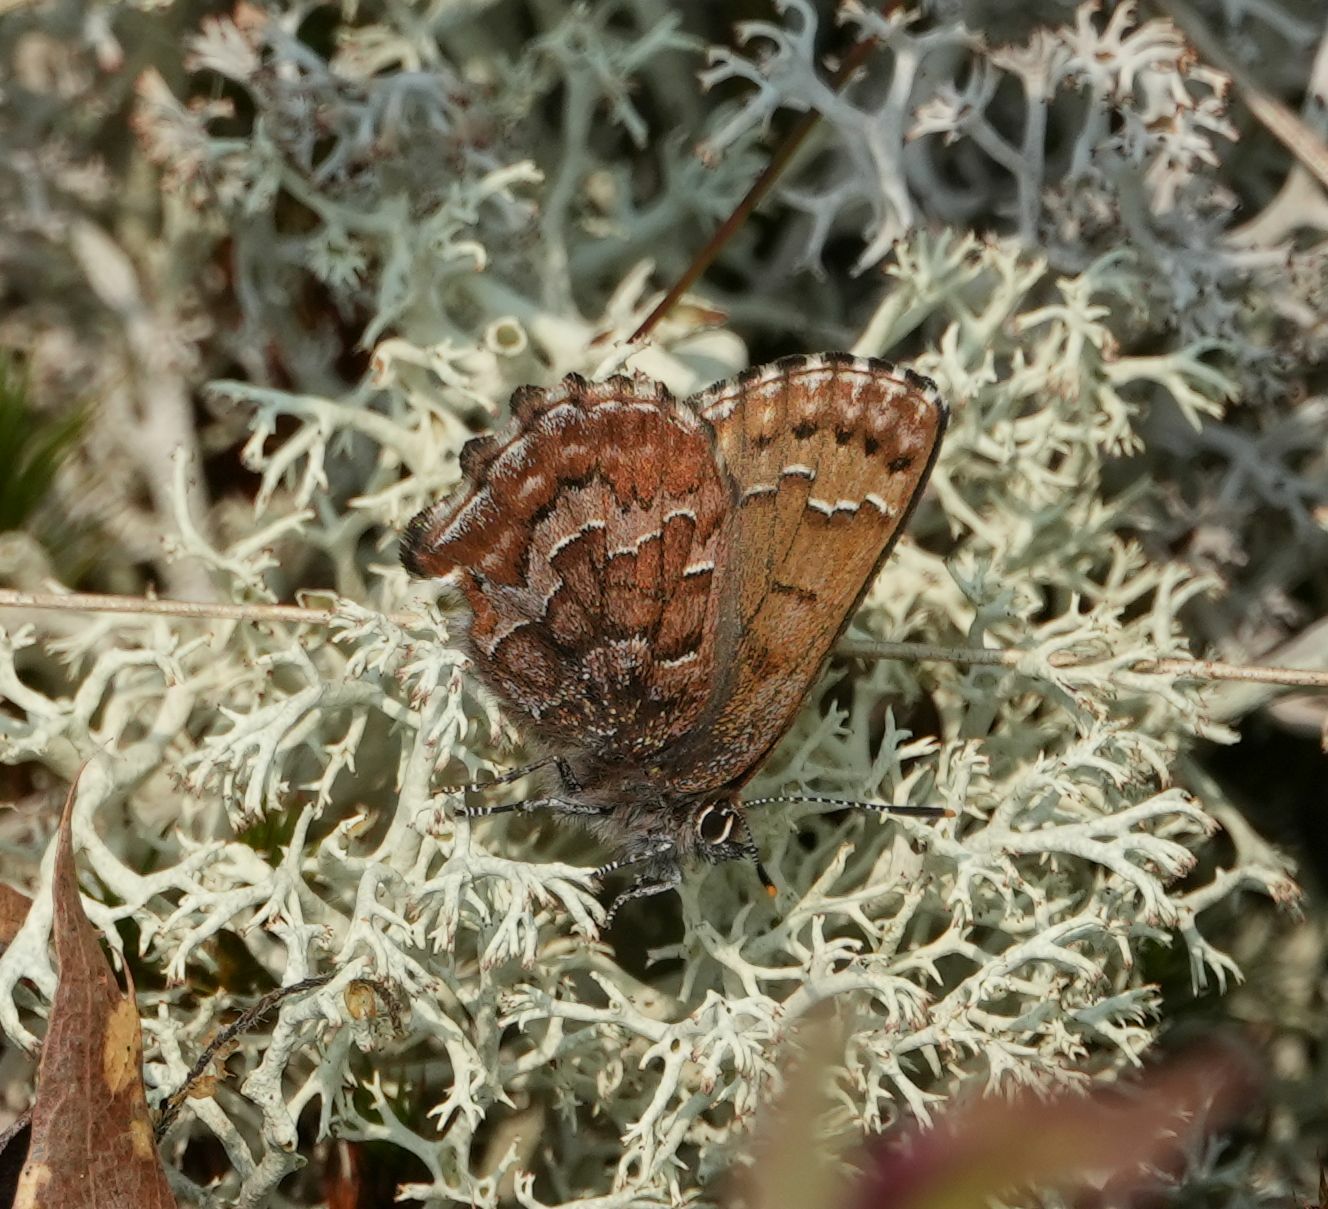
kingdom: Animalia
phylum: Arthropoda
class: Insecta
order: Lepidoptera
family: Lycaenidae
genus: Incisalia
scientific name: Incisalia niphon
